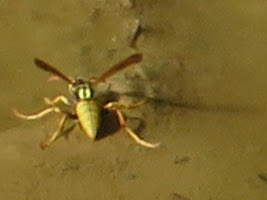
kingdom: Animalia
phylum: Arthropoda
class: Insecta
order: Hymenoptera
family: Eumenidae
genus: Polistes
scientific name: Polistes aurifer
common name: Paper wasp
